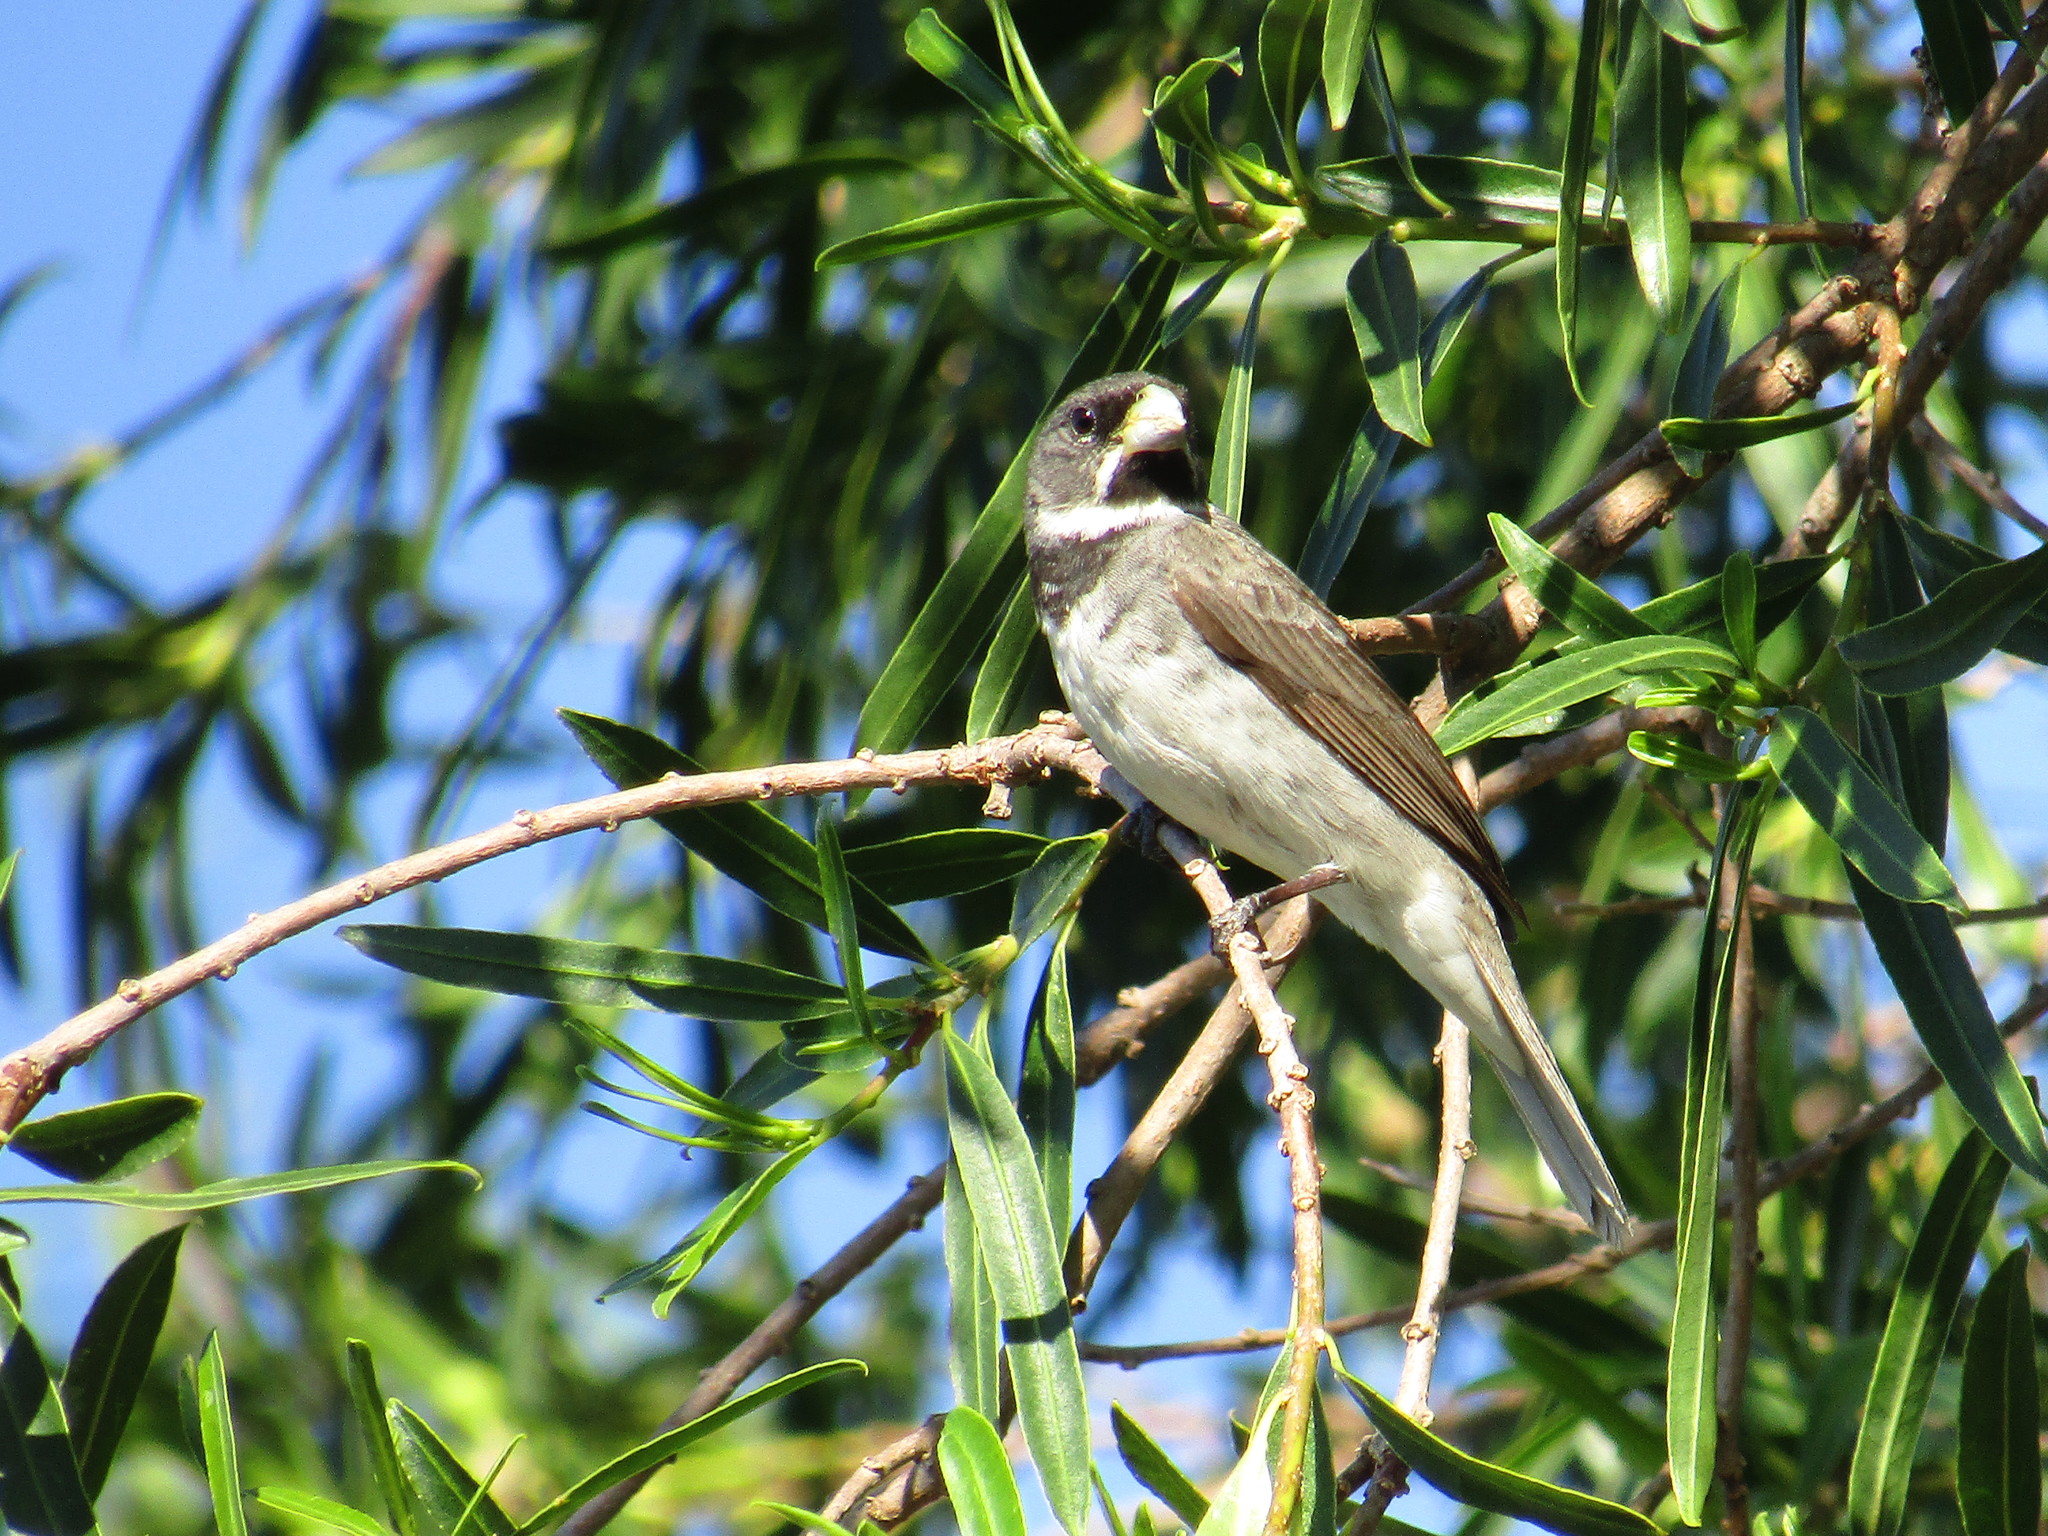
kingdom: Animalia
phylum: Chordata
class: Aves
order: Passeriformes
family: Thraupidae
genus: Sporophila
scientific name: Sporophila caerulescens
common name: Double-collared seedeater
